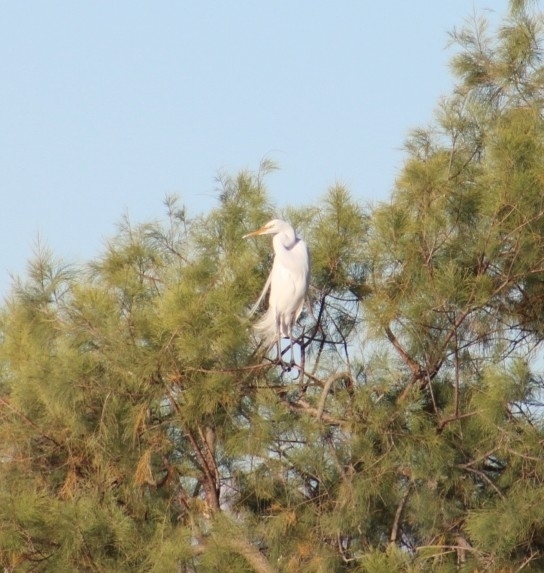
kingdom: Animalia
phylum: Chordata
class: Aves
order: Pelecaniformes
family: Ardeidae
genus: Ardea
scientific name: Ardea alba
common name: Great egret
